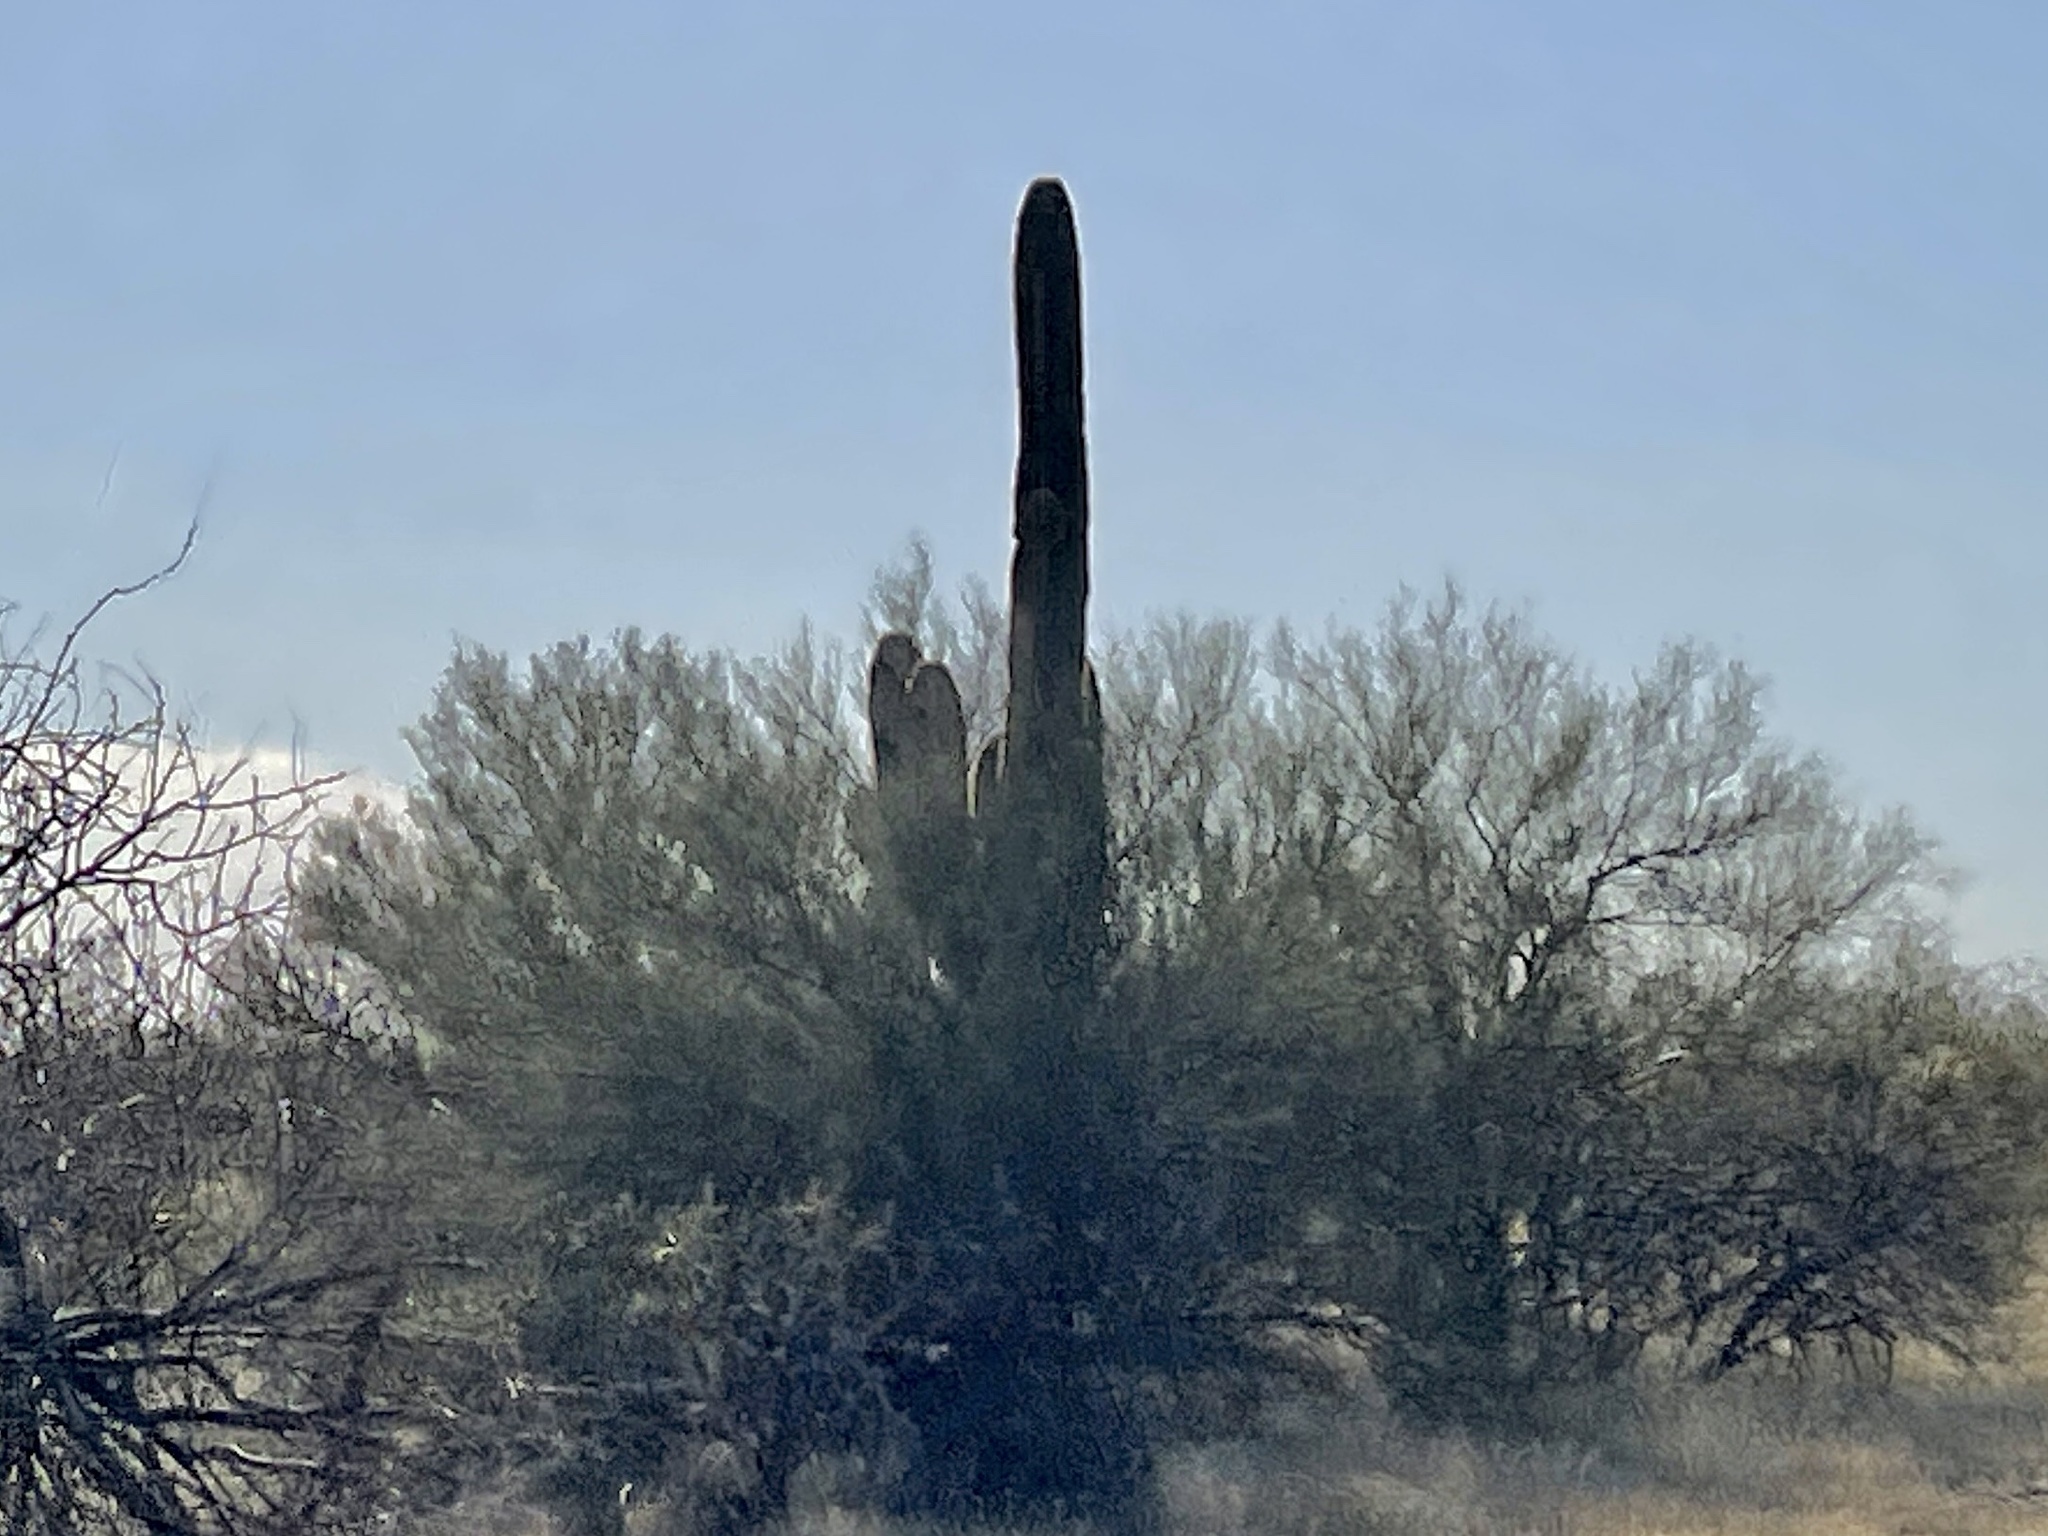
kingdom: Plantae
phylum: Tracheophyta
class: Magnoliopsida
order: Caryophyllales
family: Cactaceae
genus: Carnegiea
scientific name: Carnegiea gigantea
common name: Saguaro
